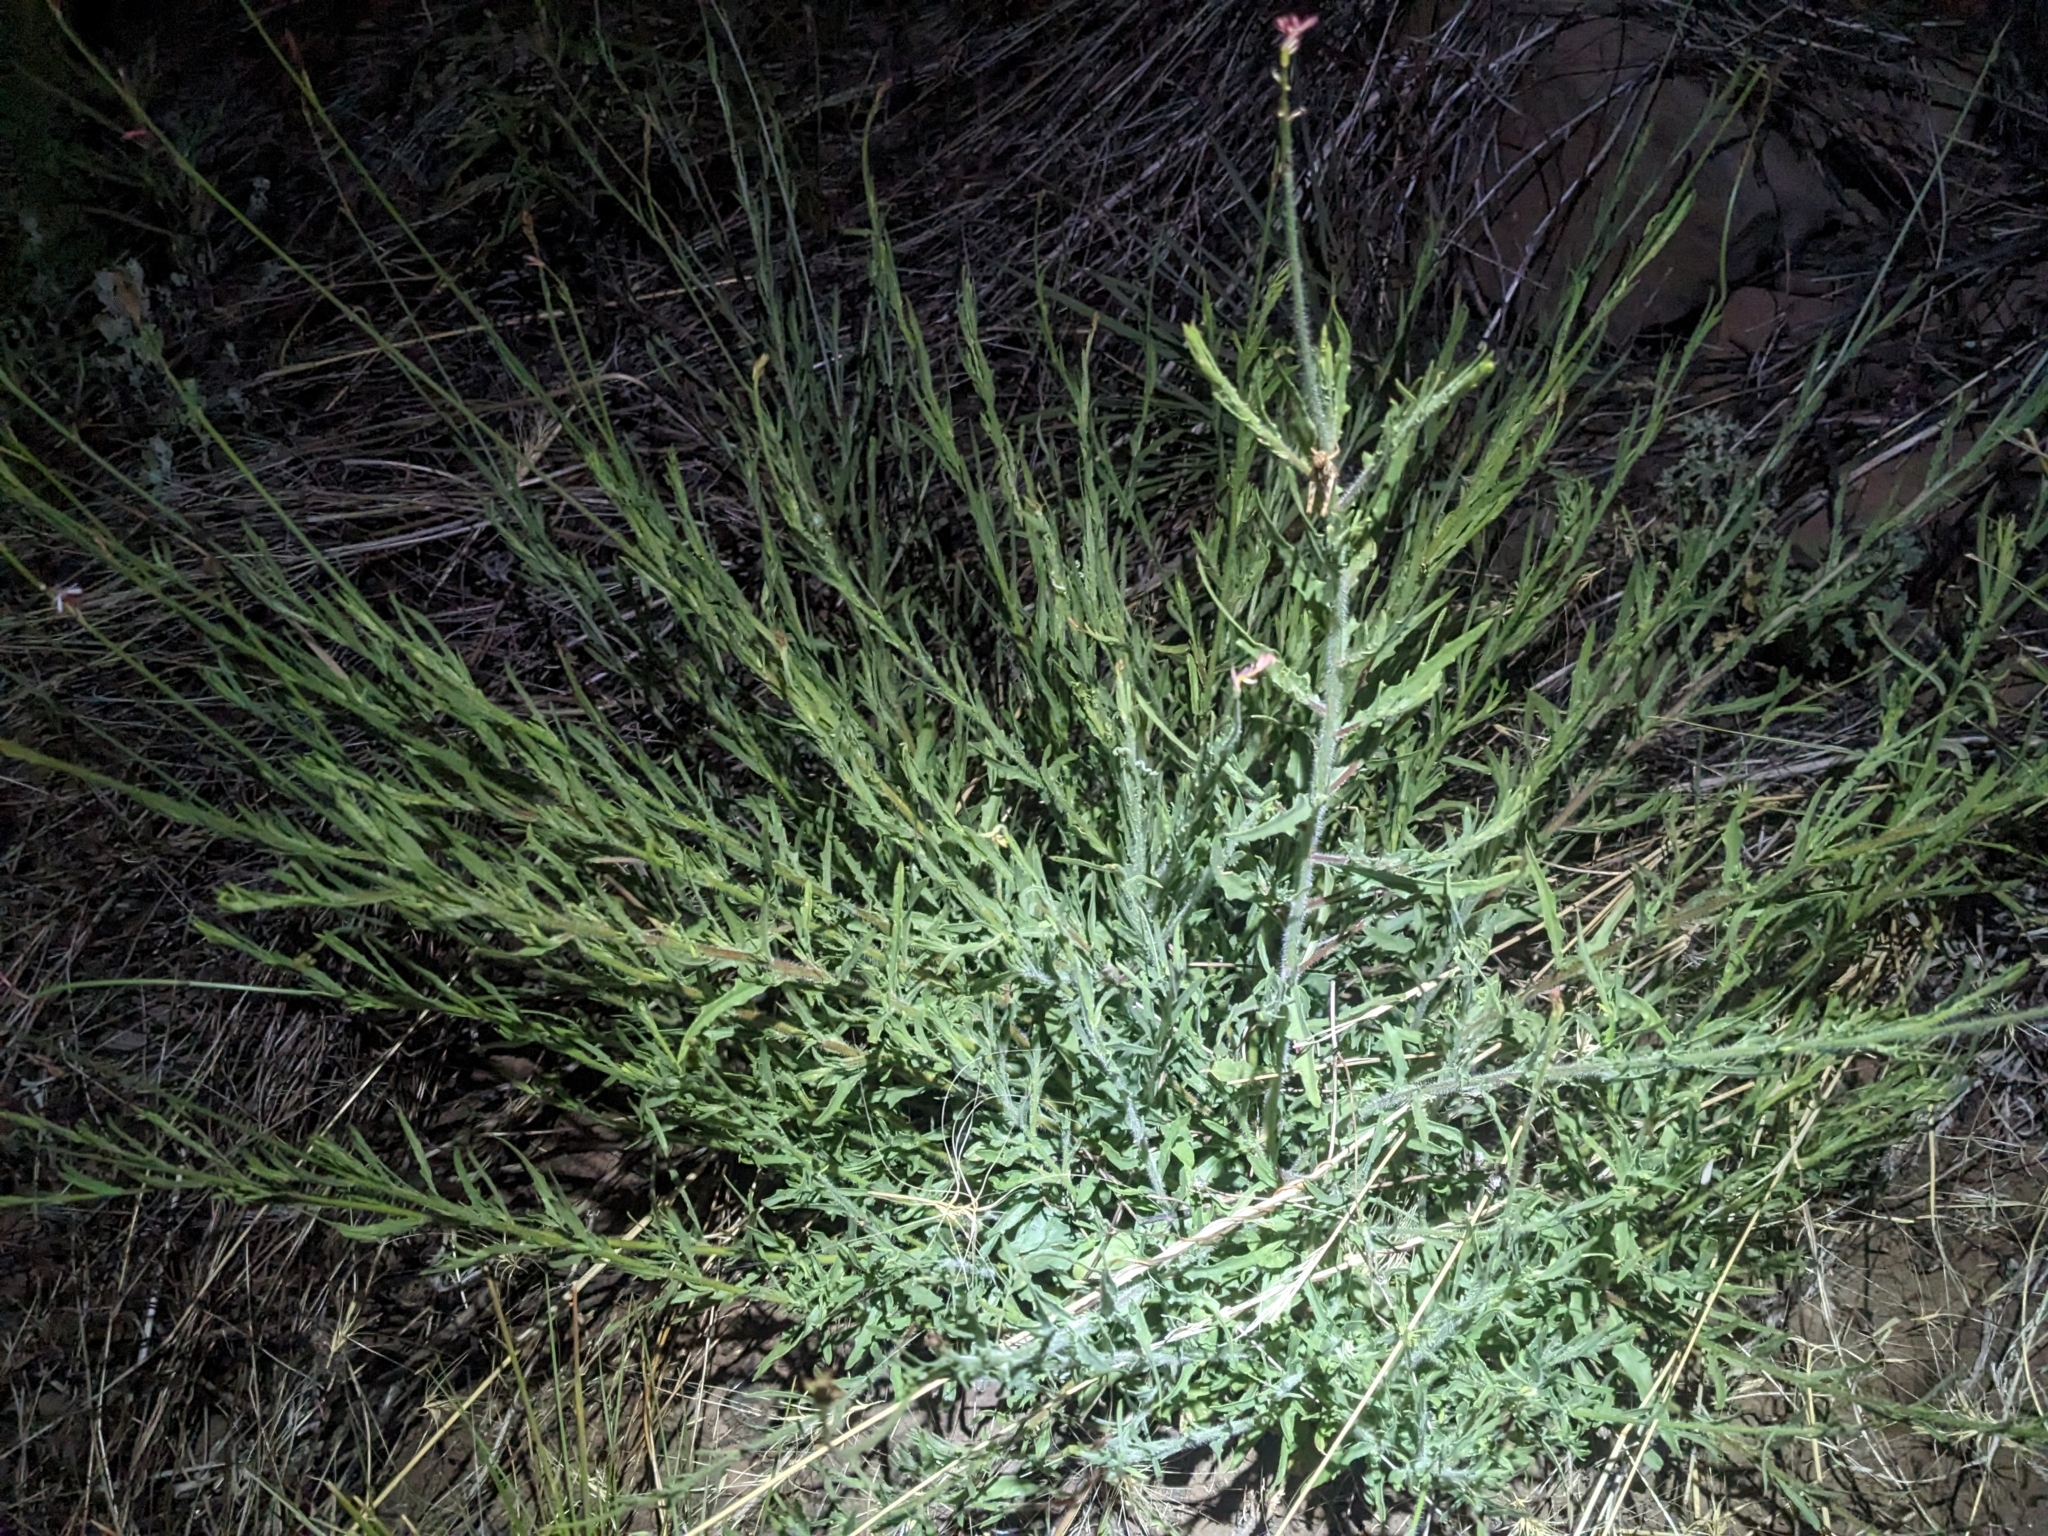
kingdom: Plantae
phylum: Tracheophyta
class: Magnoliopsida
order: Myrtales
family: Onagraceae
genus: Oenothera
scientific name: Oenothera podocarpa
